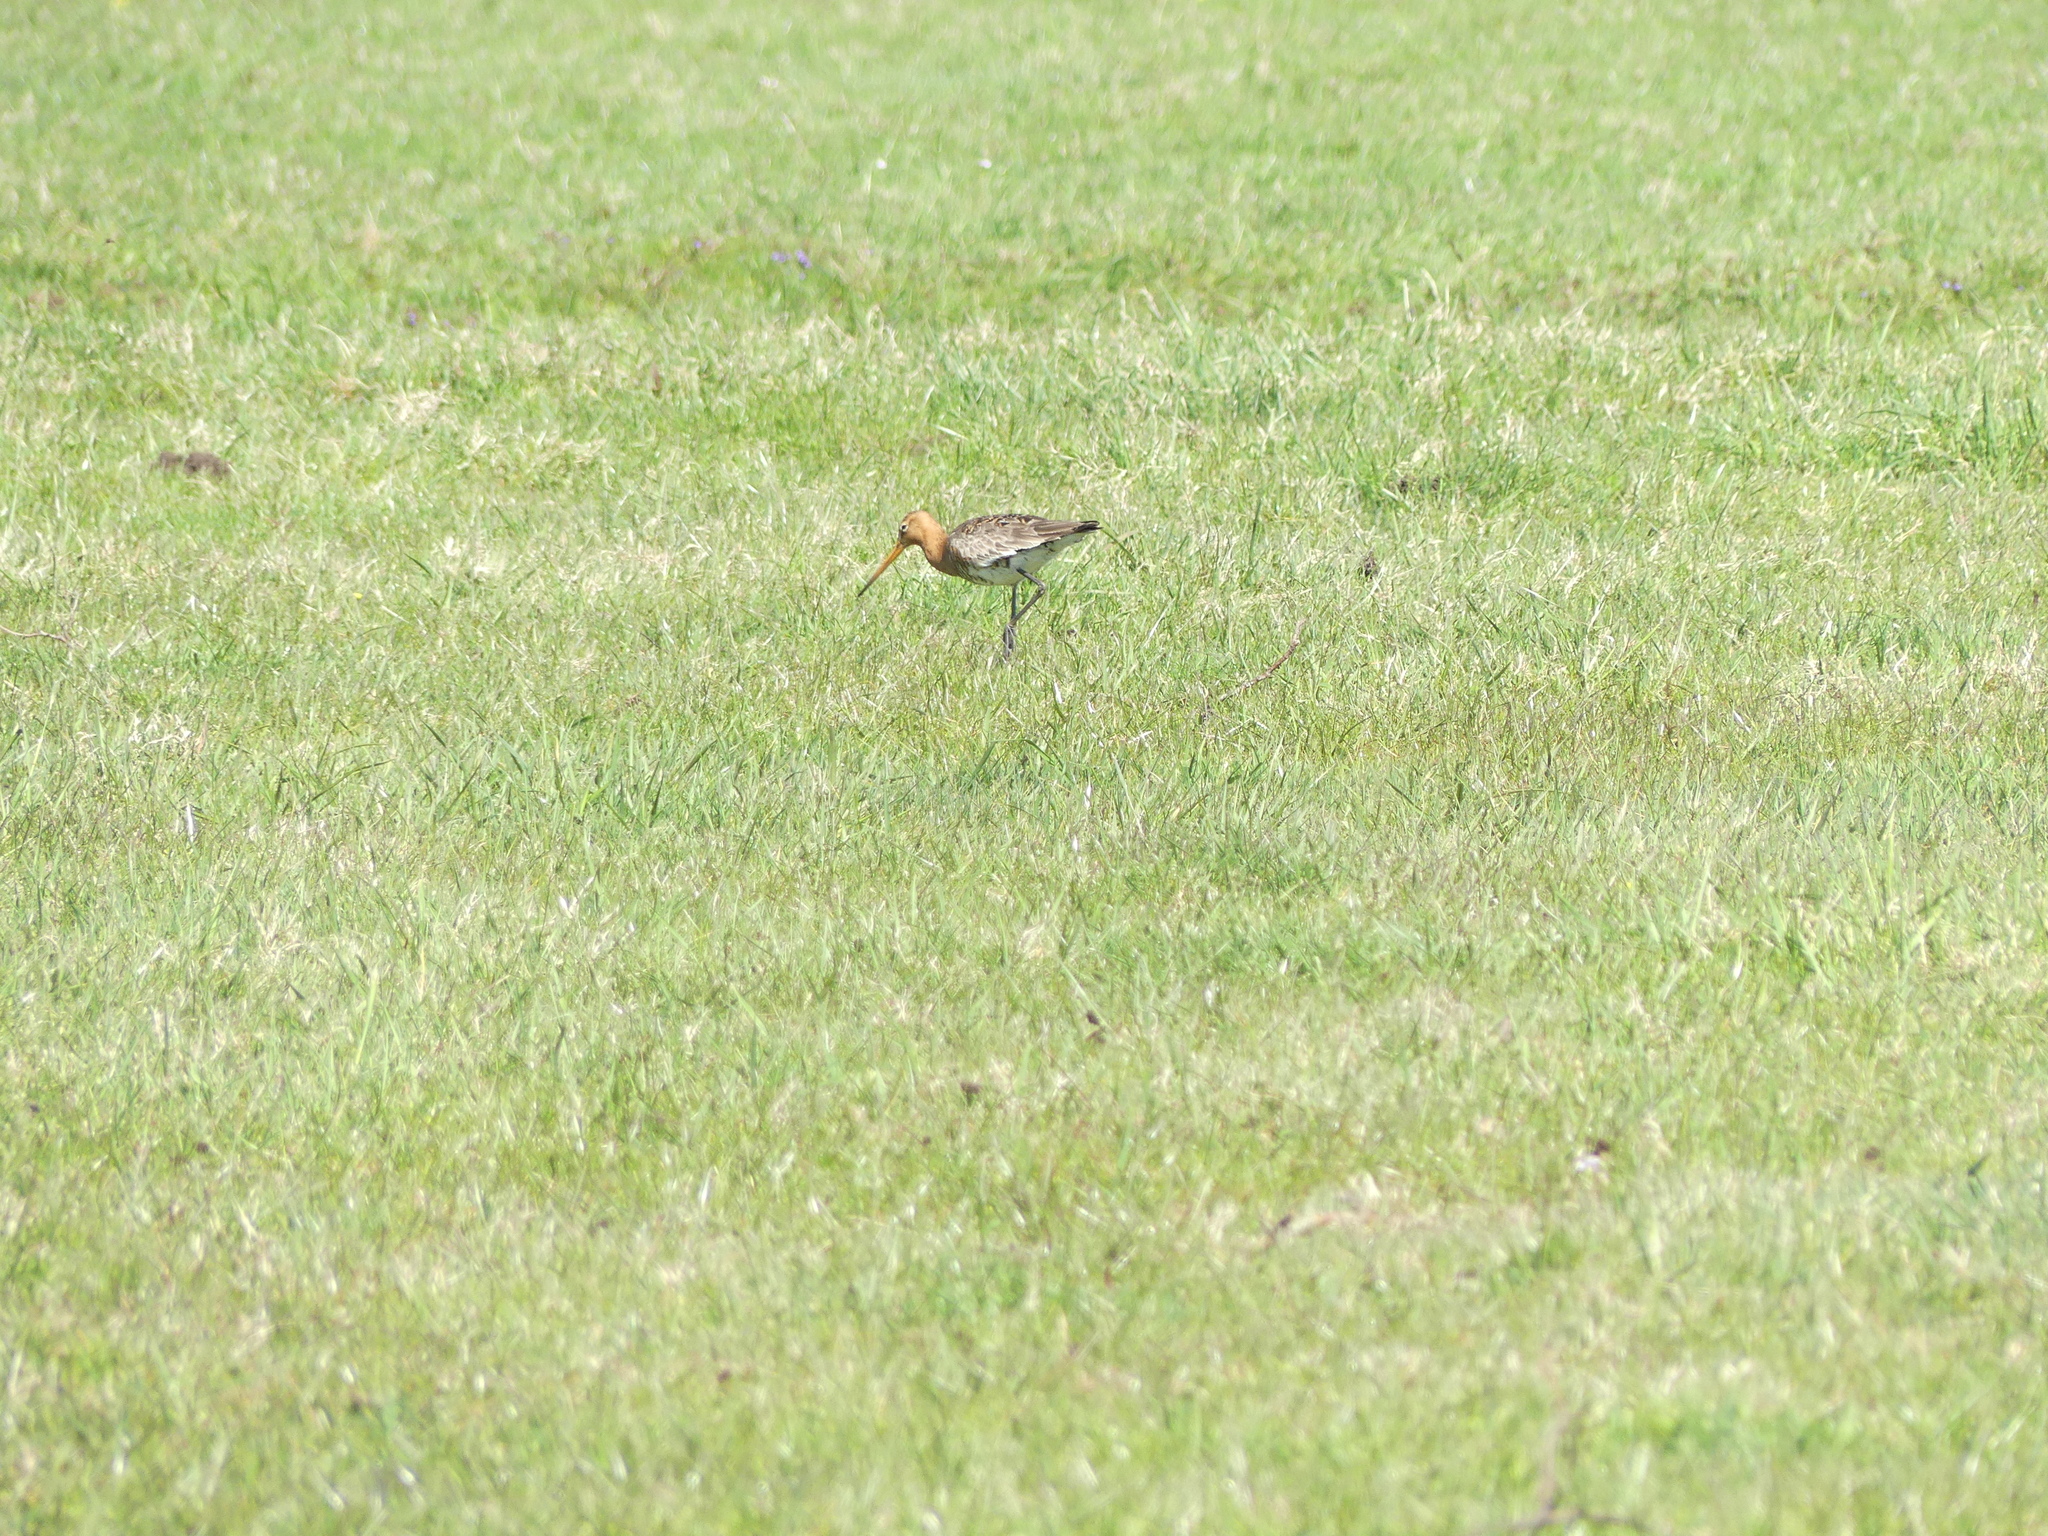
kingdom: Animalia
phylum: Chordata
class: Aves
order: Charadriiformes
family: Scolopacidae
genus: Limosa
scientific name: Limosa limosa
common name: Black-tailed godwit
